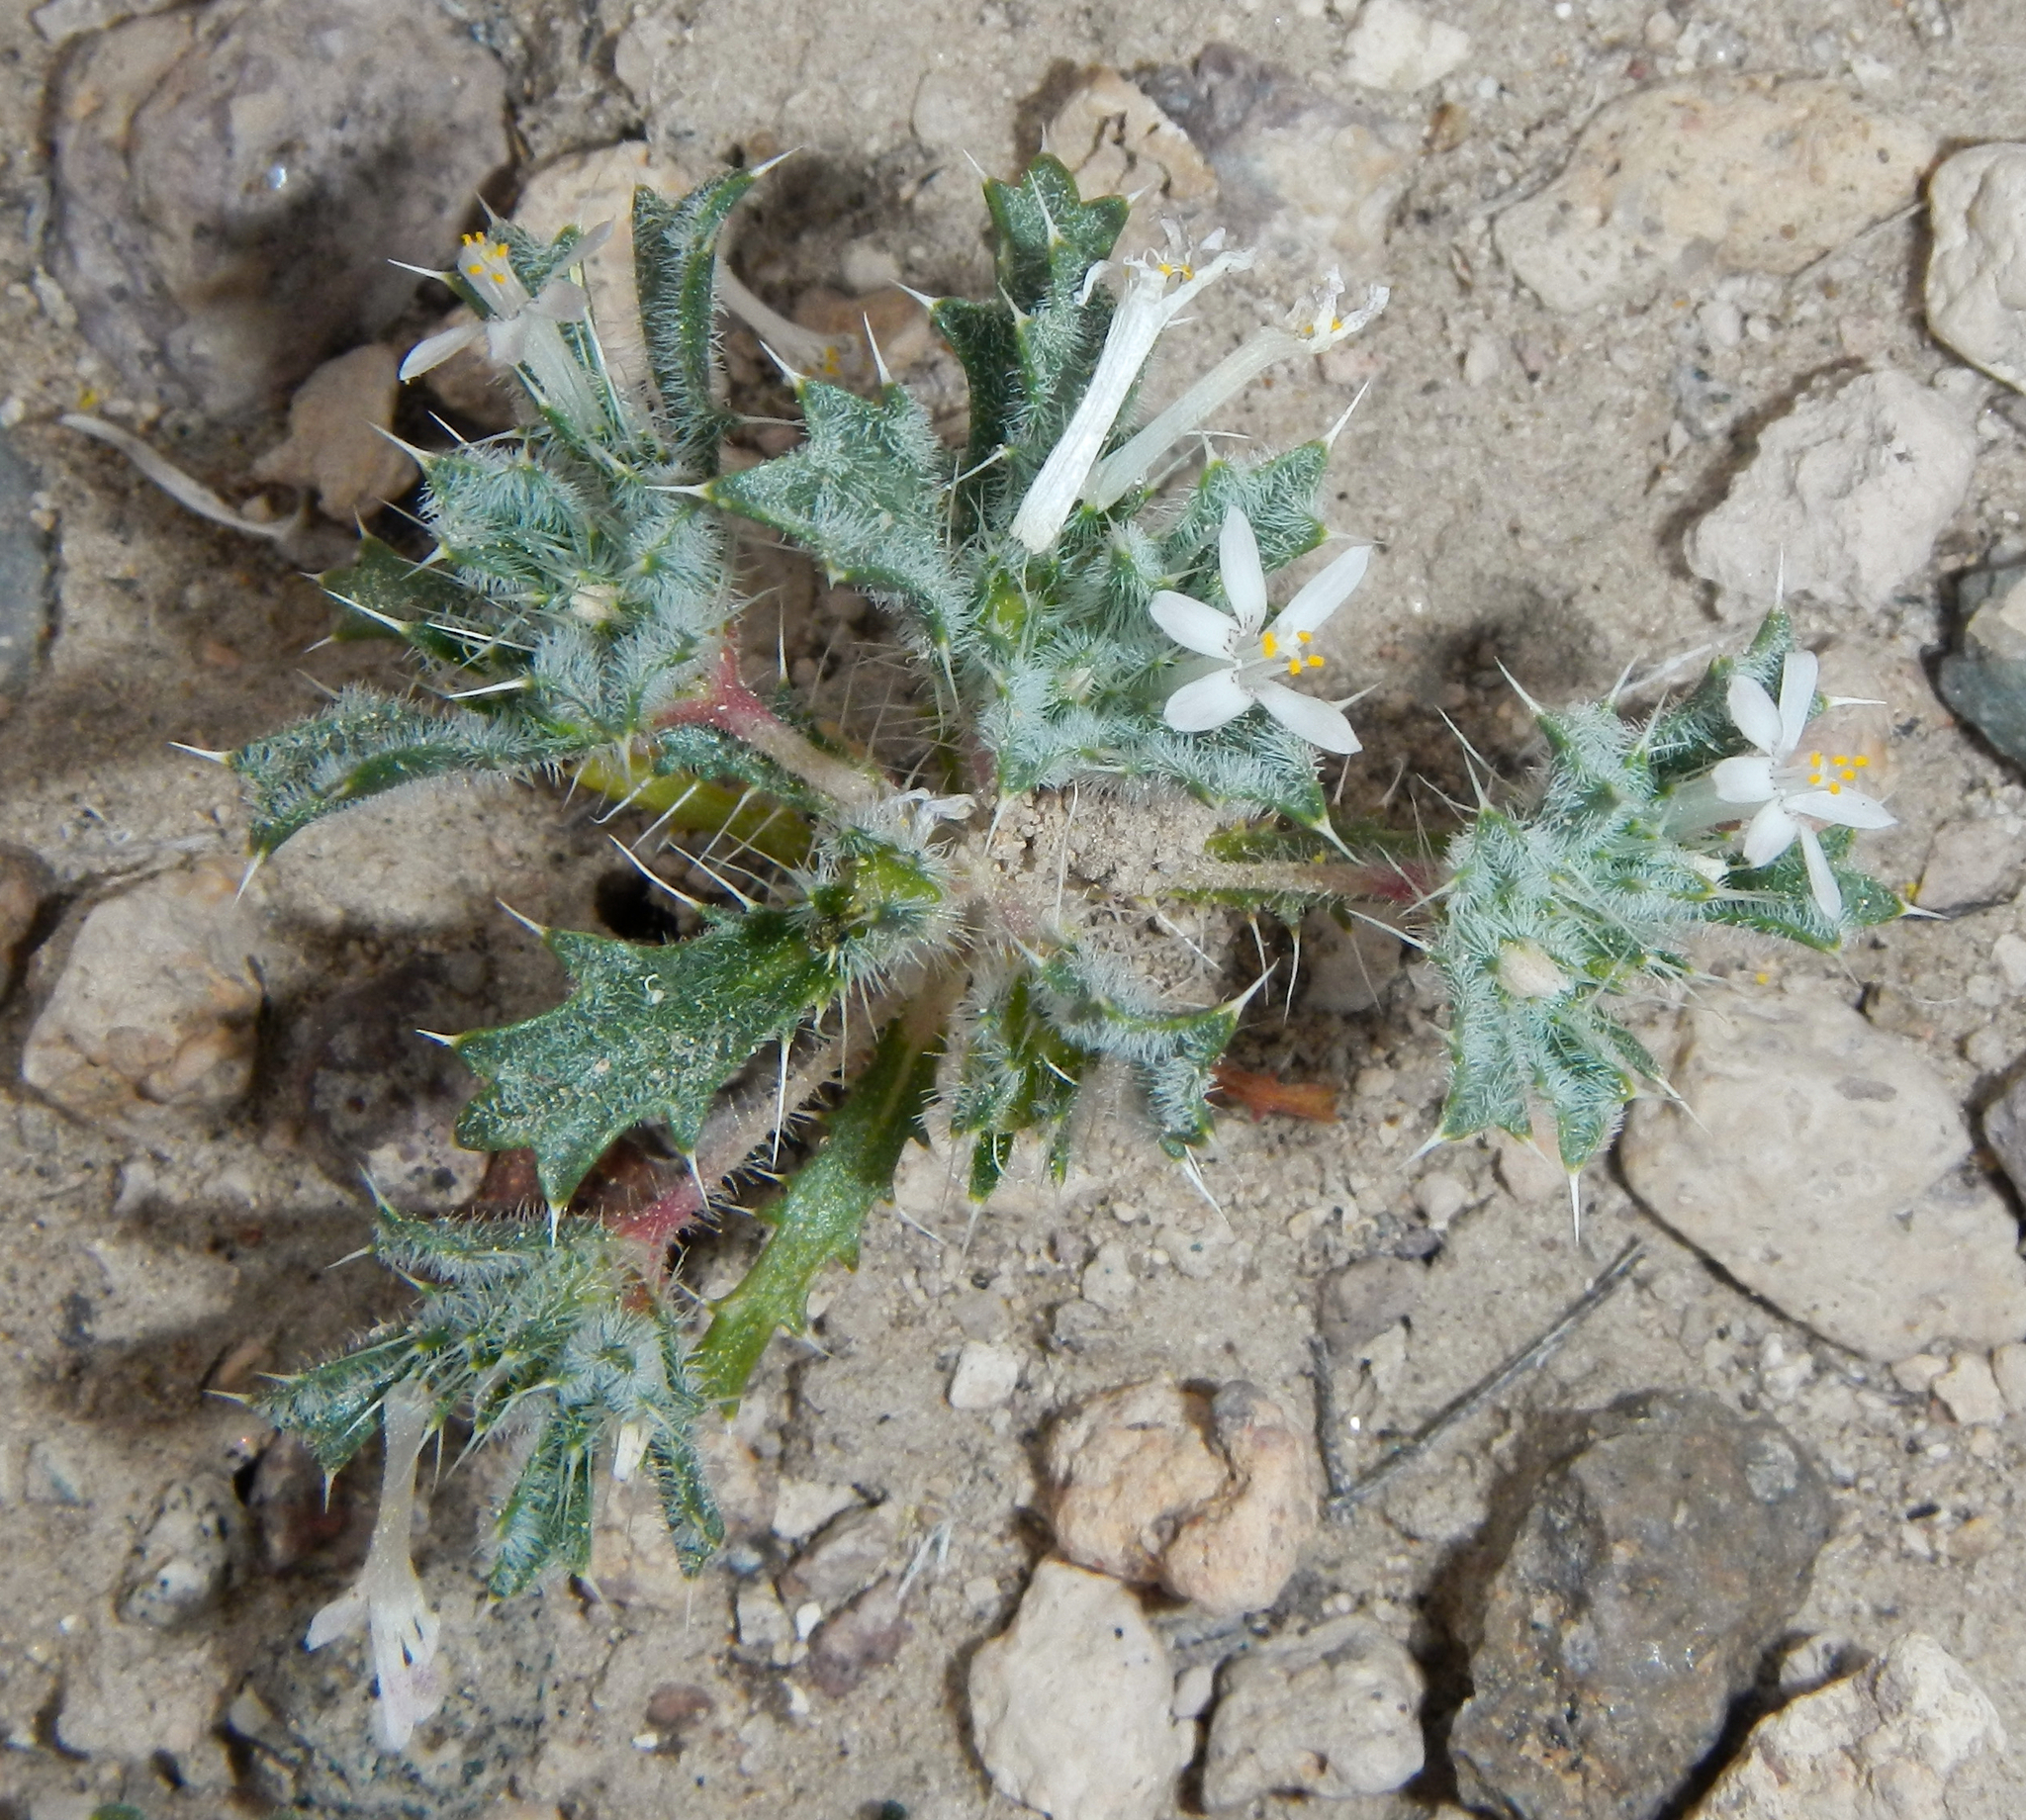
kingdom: Plantae
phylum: Tracheophyta
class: Magnoliopsida
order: Ericales
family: Polemoniaceae
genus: Loeseliastrum
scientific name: Loeseliastrum schottii
